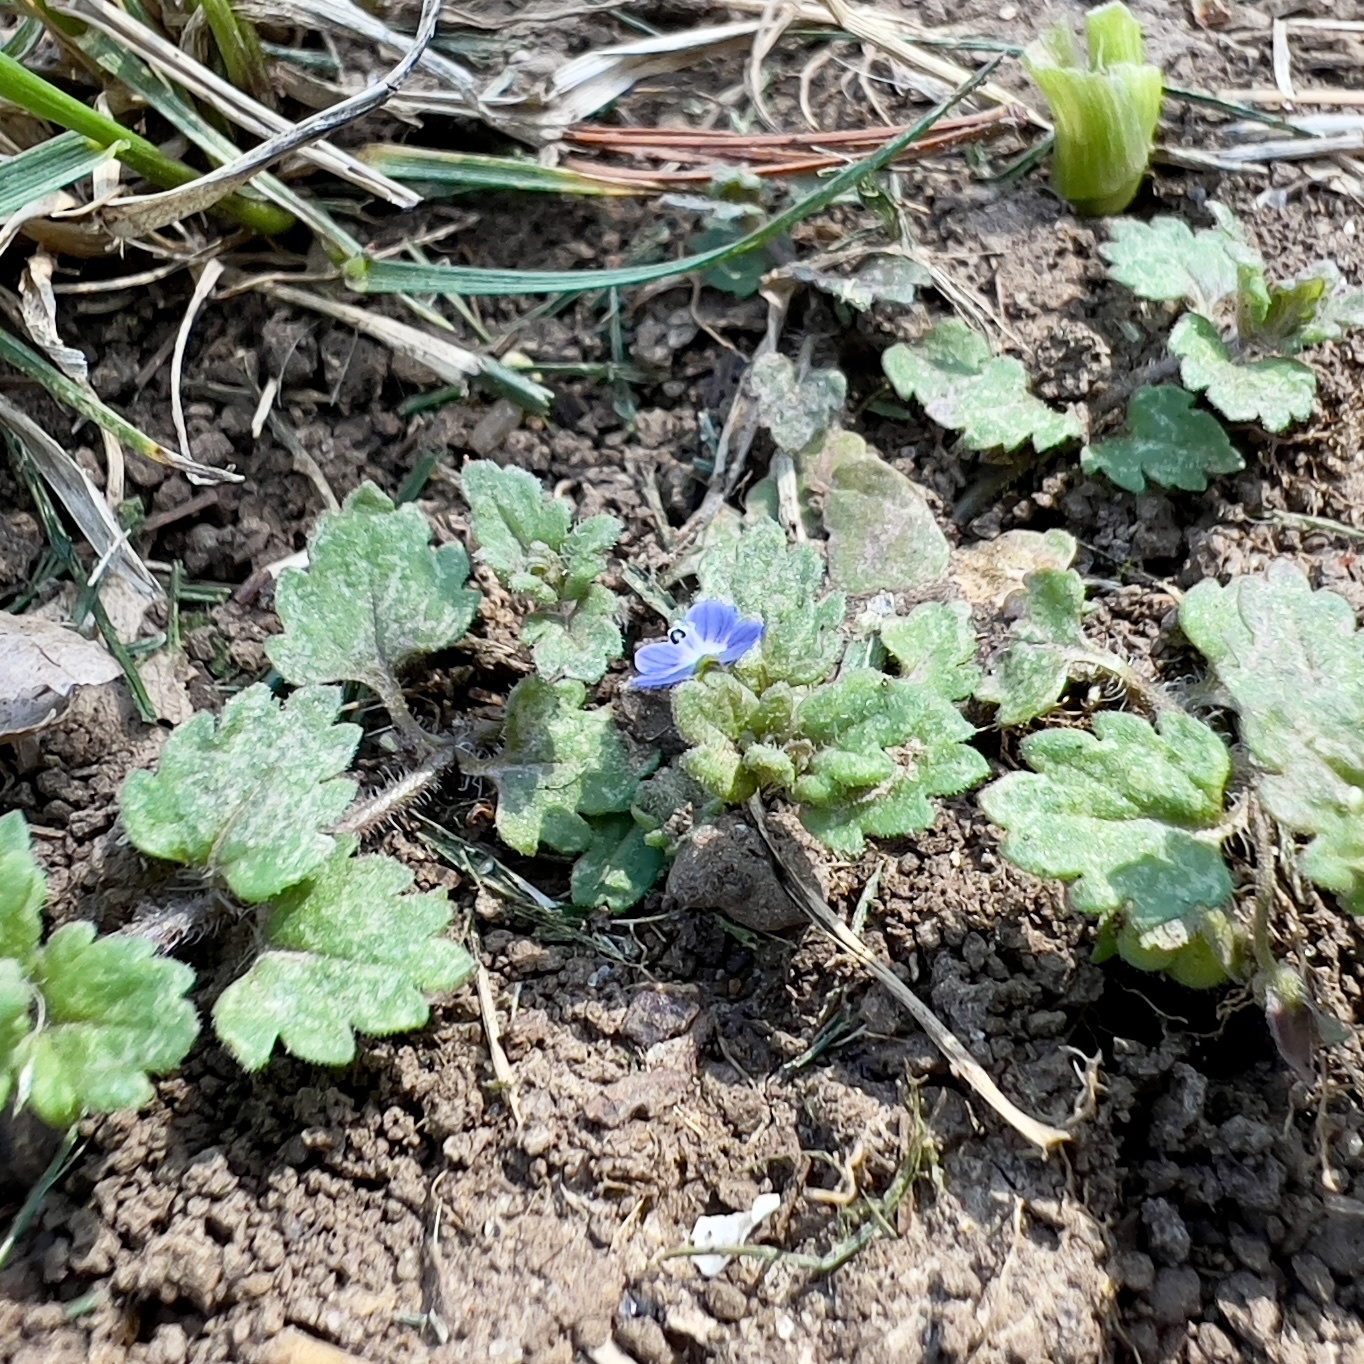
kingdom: Plantae
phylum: Tracheophyta
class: Magnoliopsida
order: Lamiales
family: Plantaginaceae
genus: Veronica
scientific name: Veronica polita
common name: Grey field-speedwell
